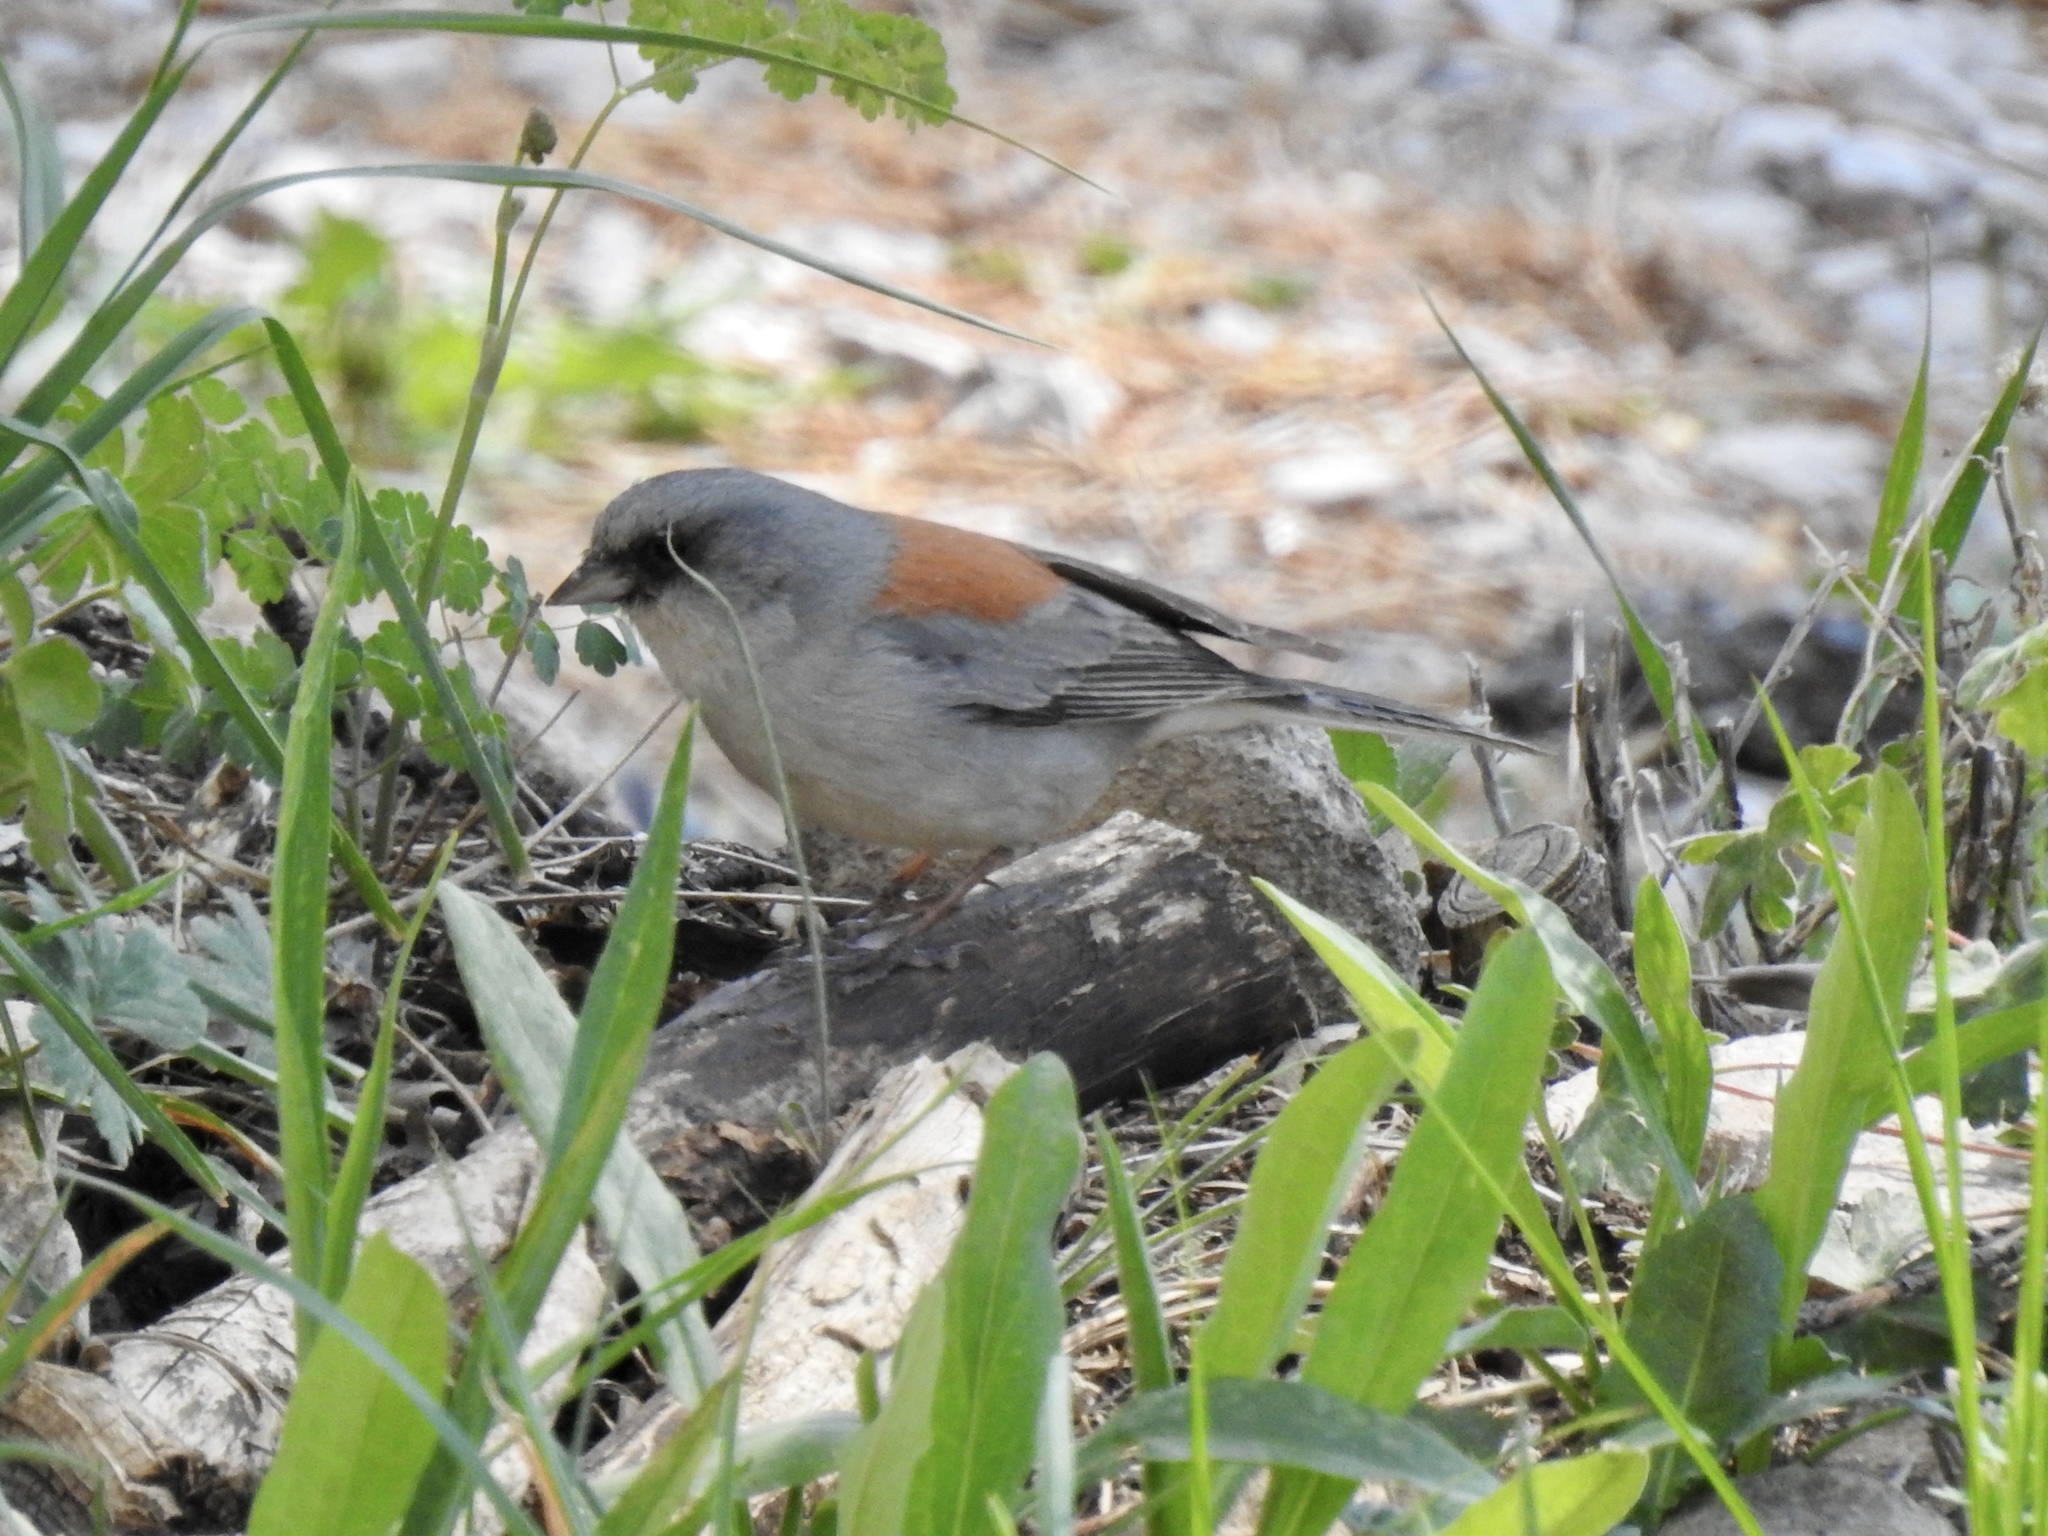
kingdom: Animalia
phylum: Chordata
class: Aves
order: Passeriformes
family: Passerellidae
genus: Junco
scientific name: Junco hyemalis
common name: Dark-eyed junco
